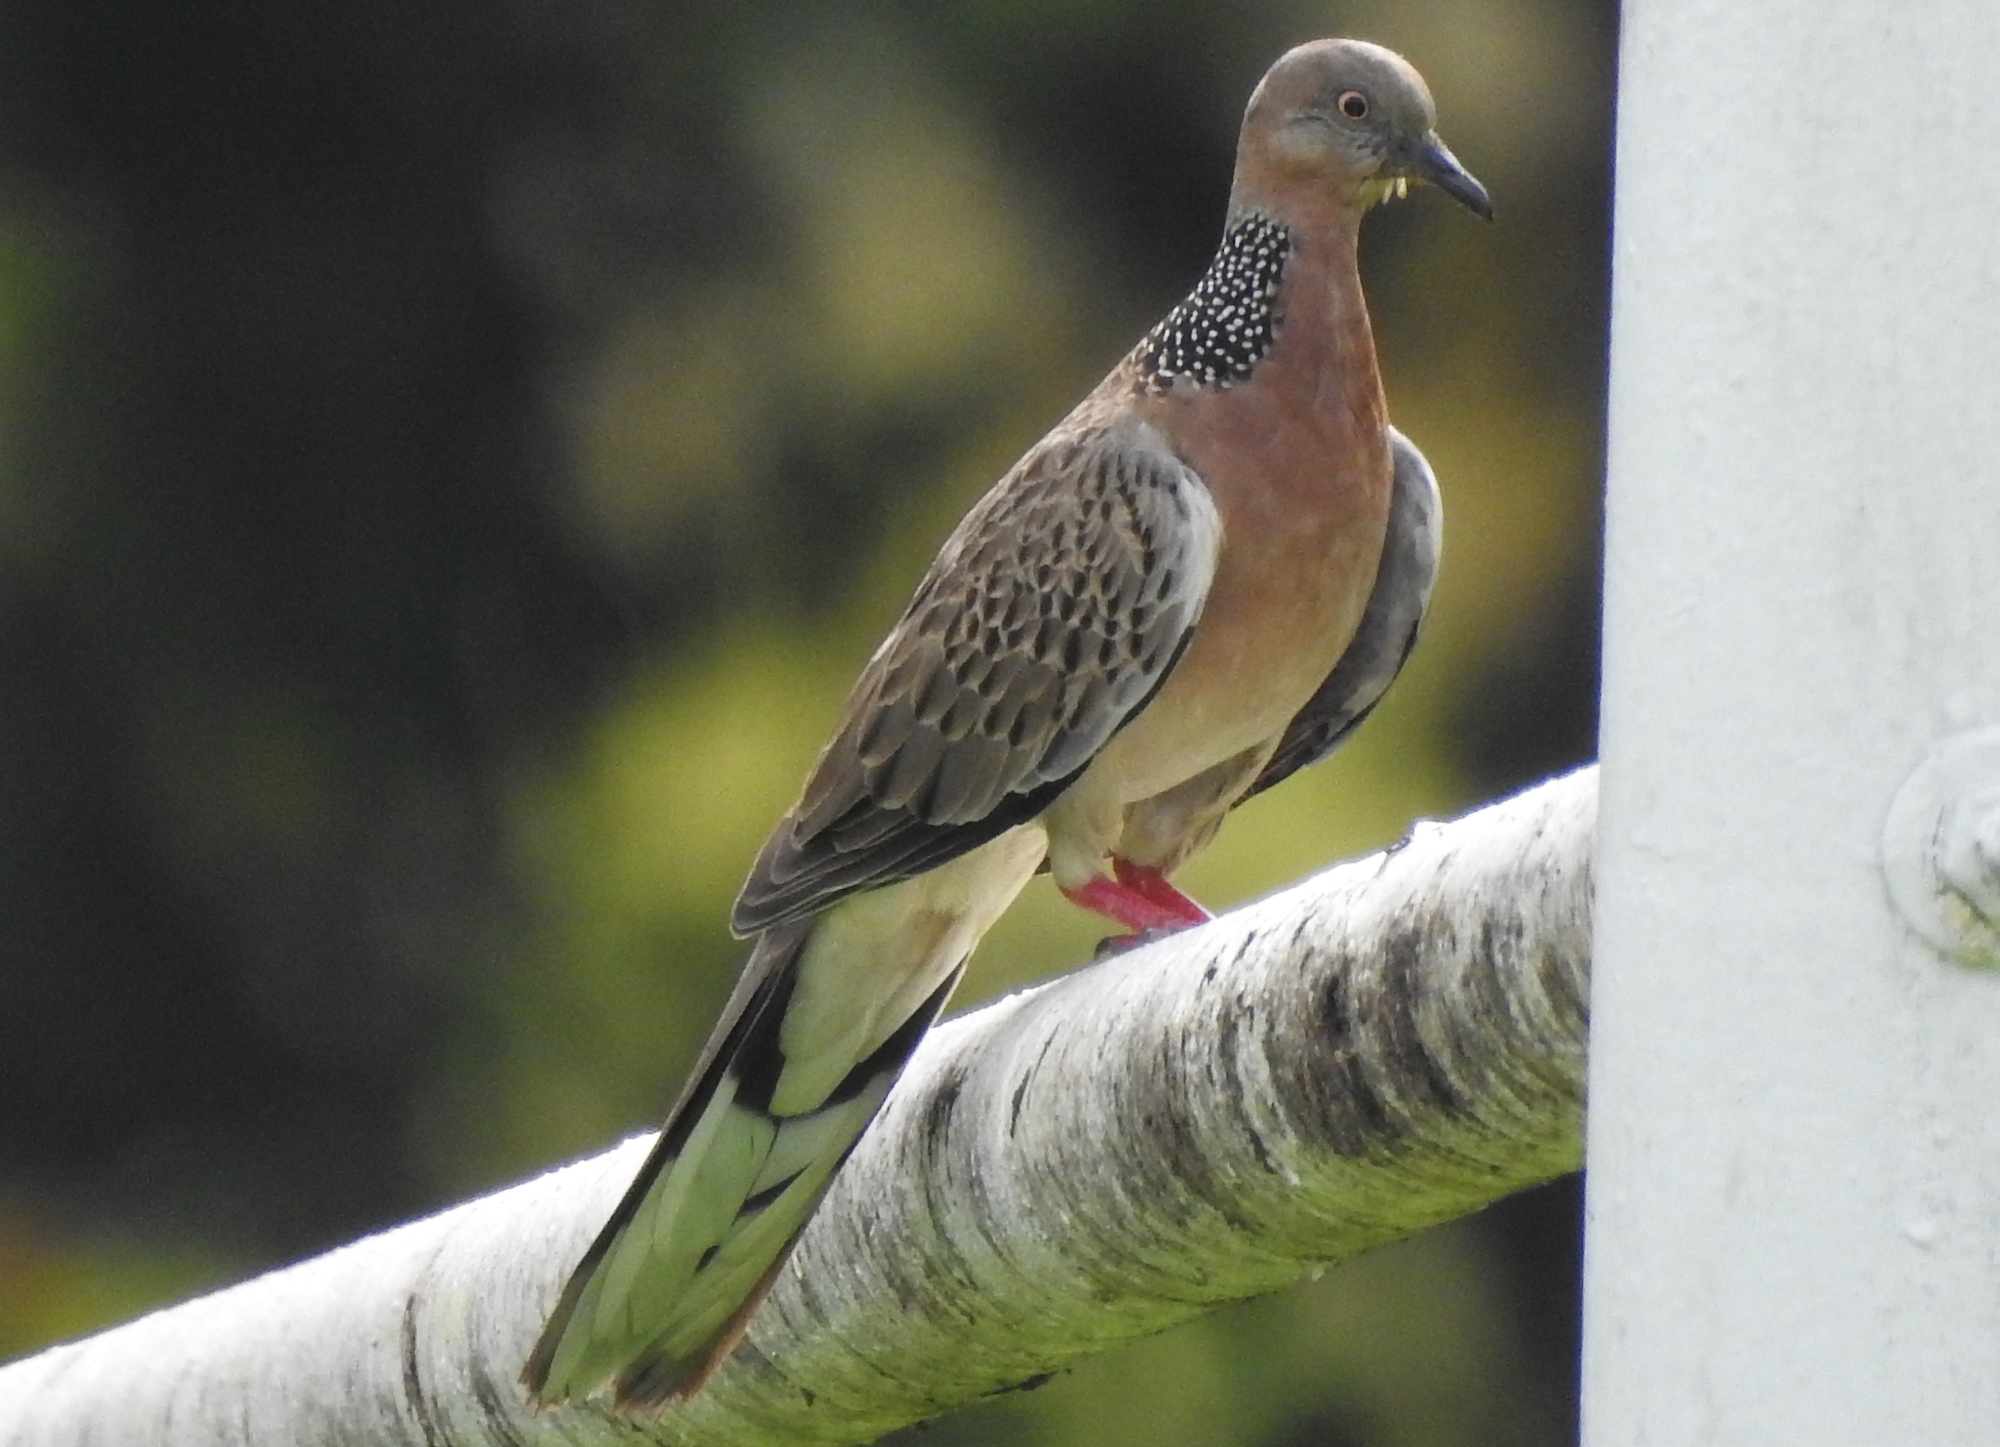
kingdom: Animalia
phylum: Chordata
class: Aves
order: Columbiformes
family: Columbidae
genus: Spilopelia
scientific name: Spilopelia chinensis
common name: Spotted dove
